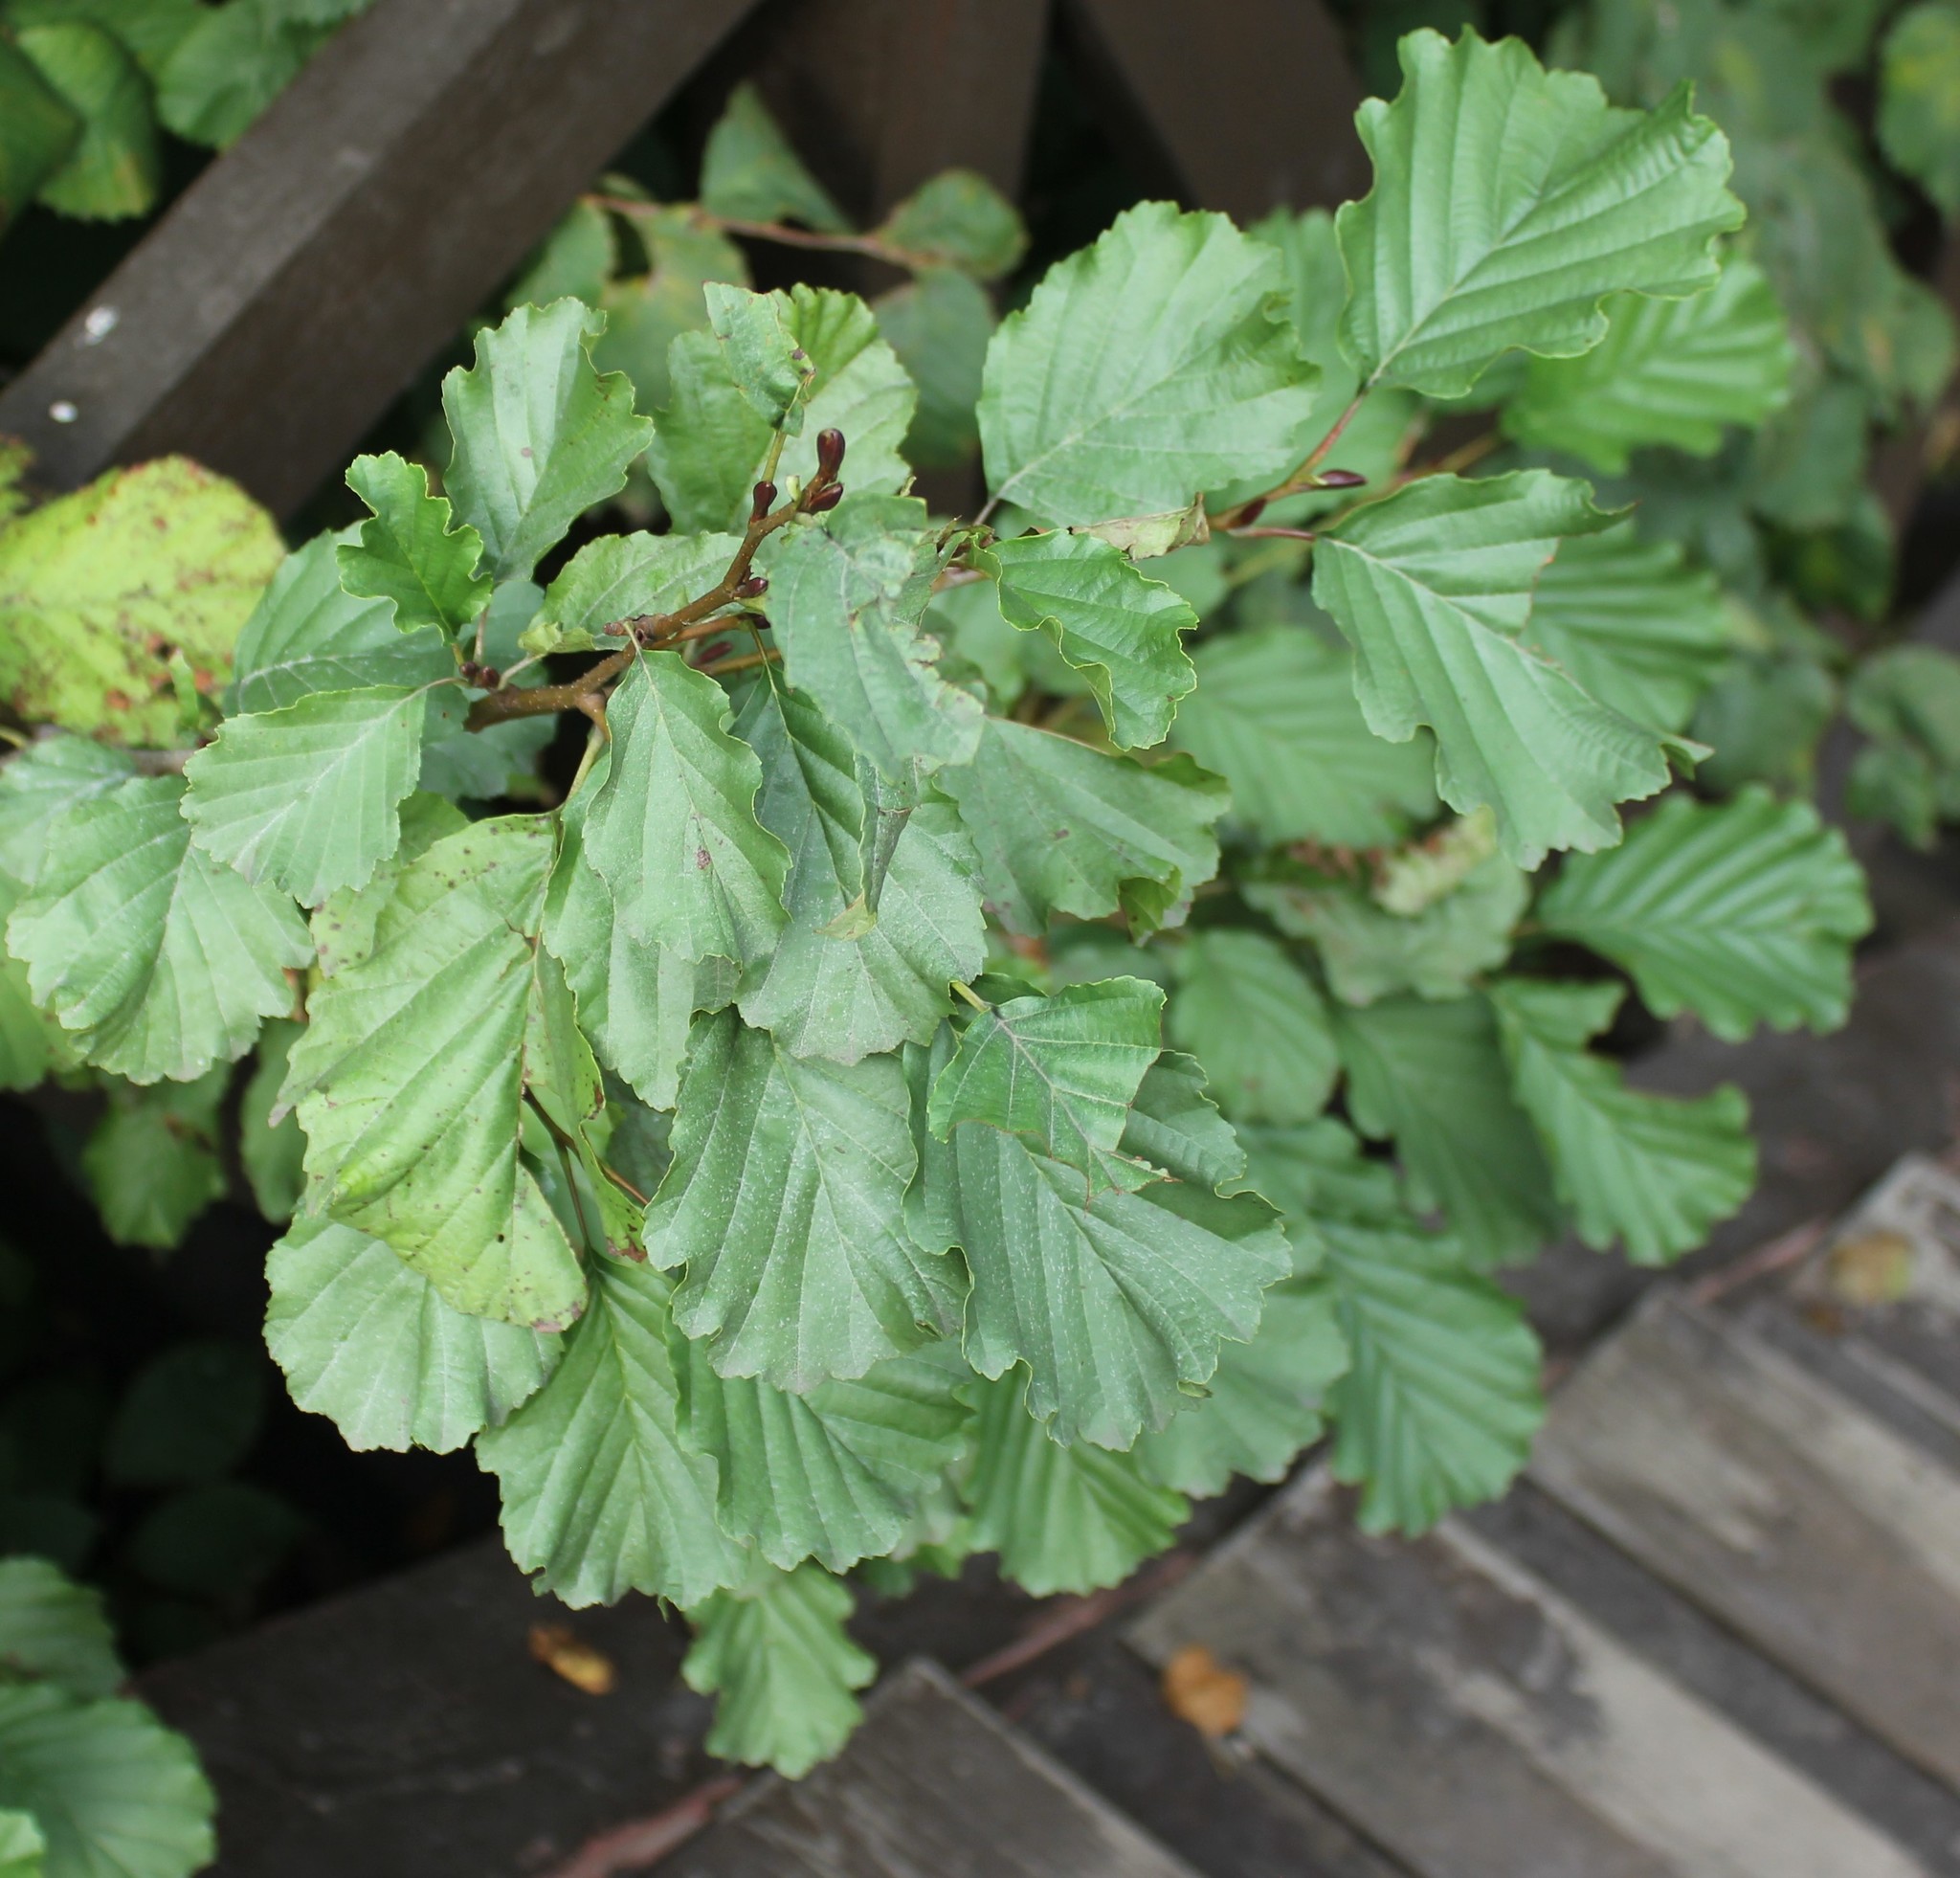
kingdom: Plantae
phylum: Tracheophyta
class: Magnoliopsida
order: Fagales
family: Betulaceae
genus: Alnus
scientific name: Alnus glutinosa
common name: Black alder
